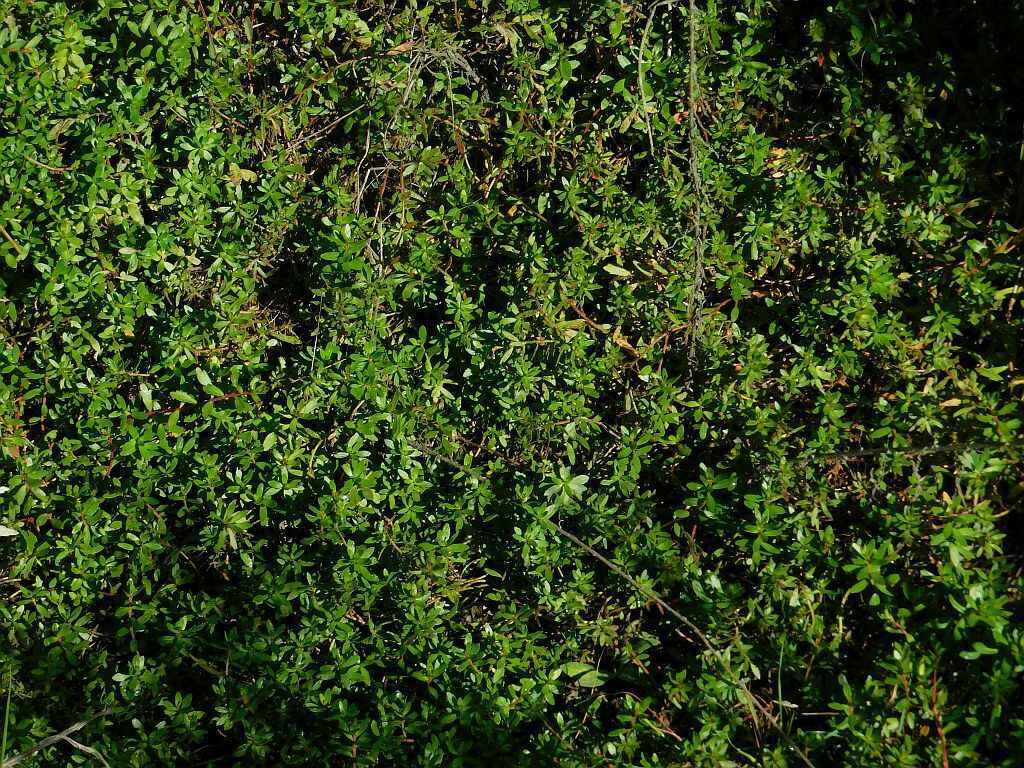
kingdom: Plantae
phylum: Tracheophyta
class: Magnoliopsida
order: Saxifragales
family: Haloragaceae
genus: Laurembergia
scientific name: Laurembergia repens
